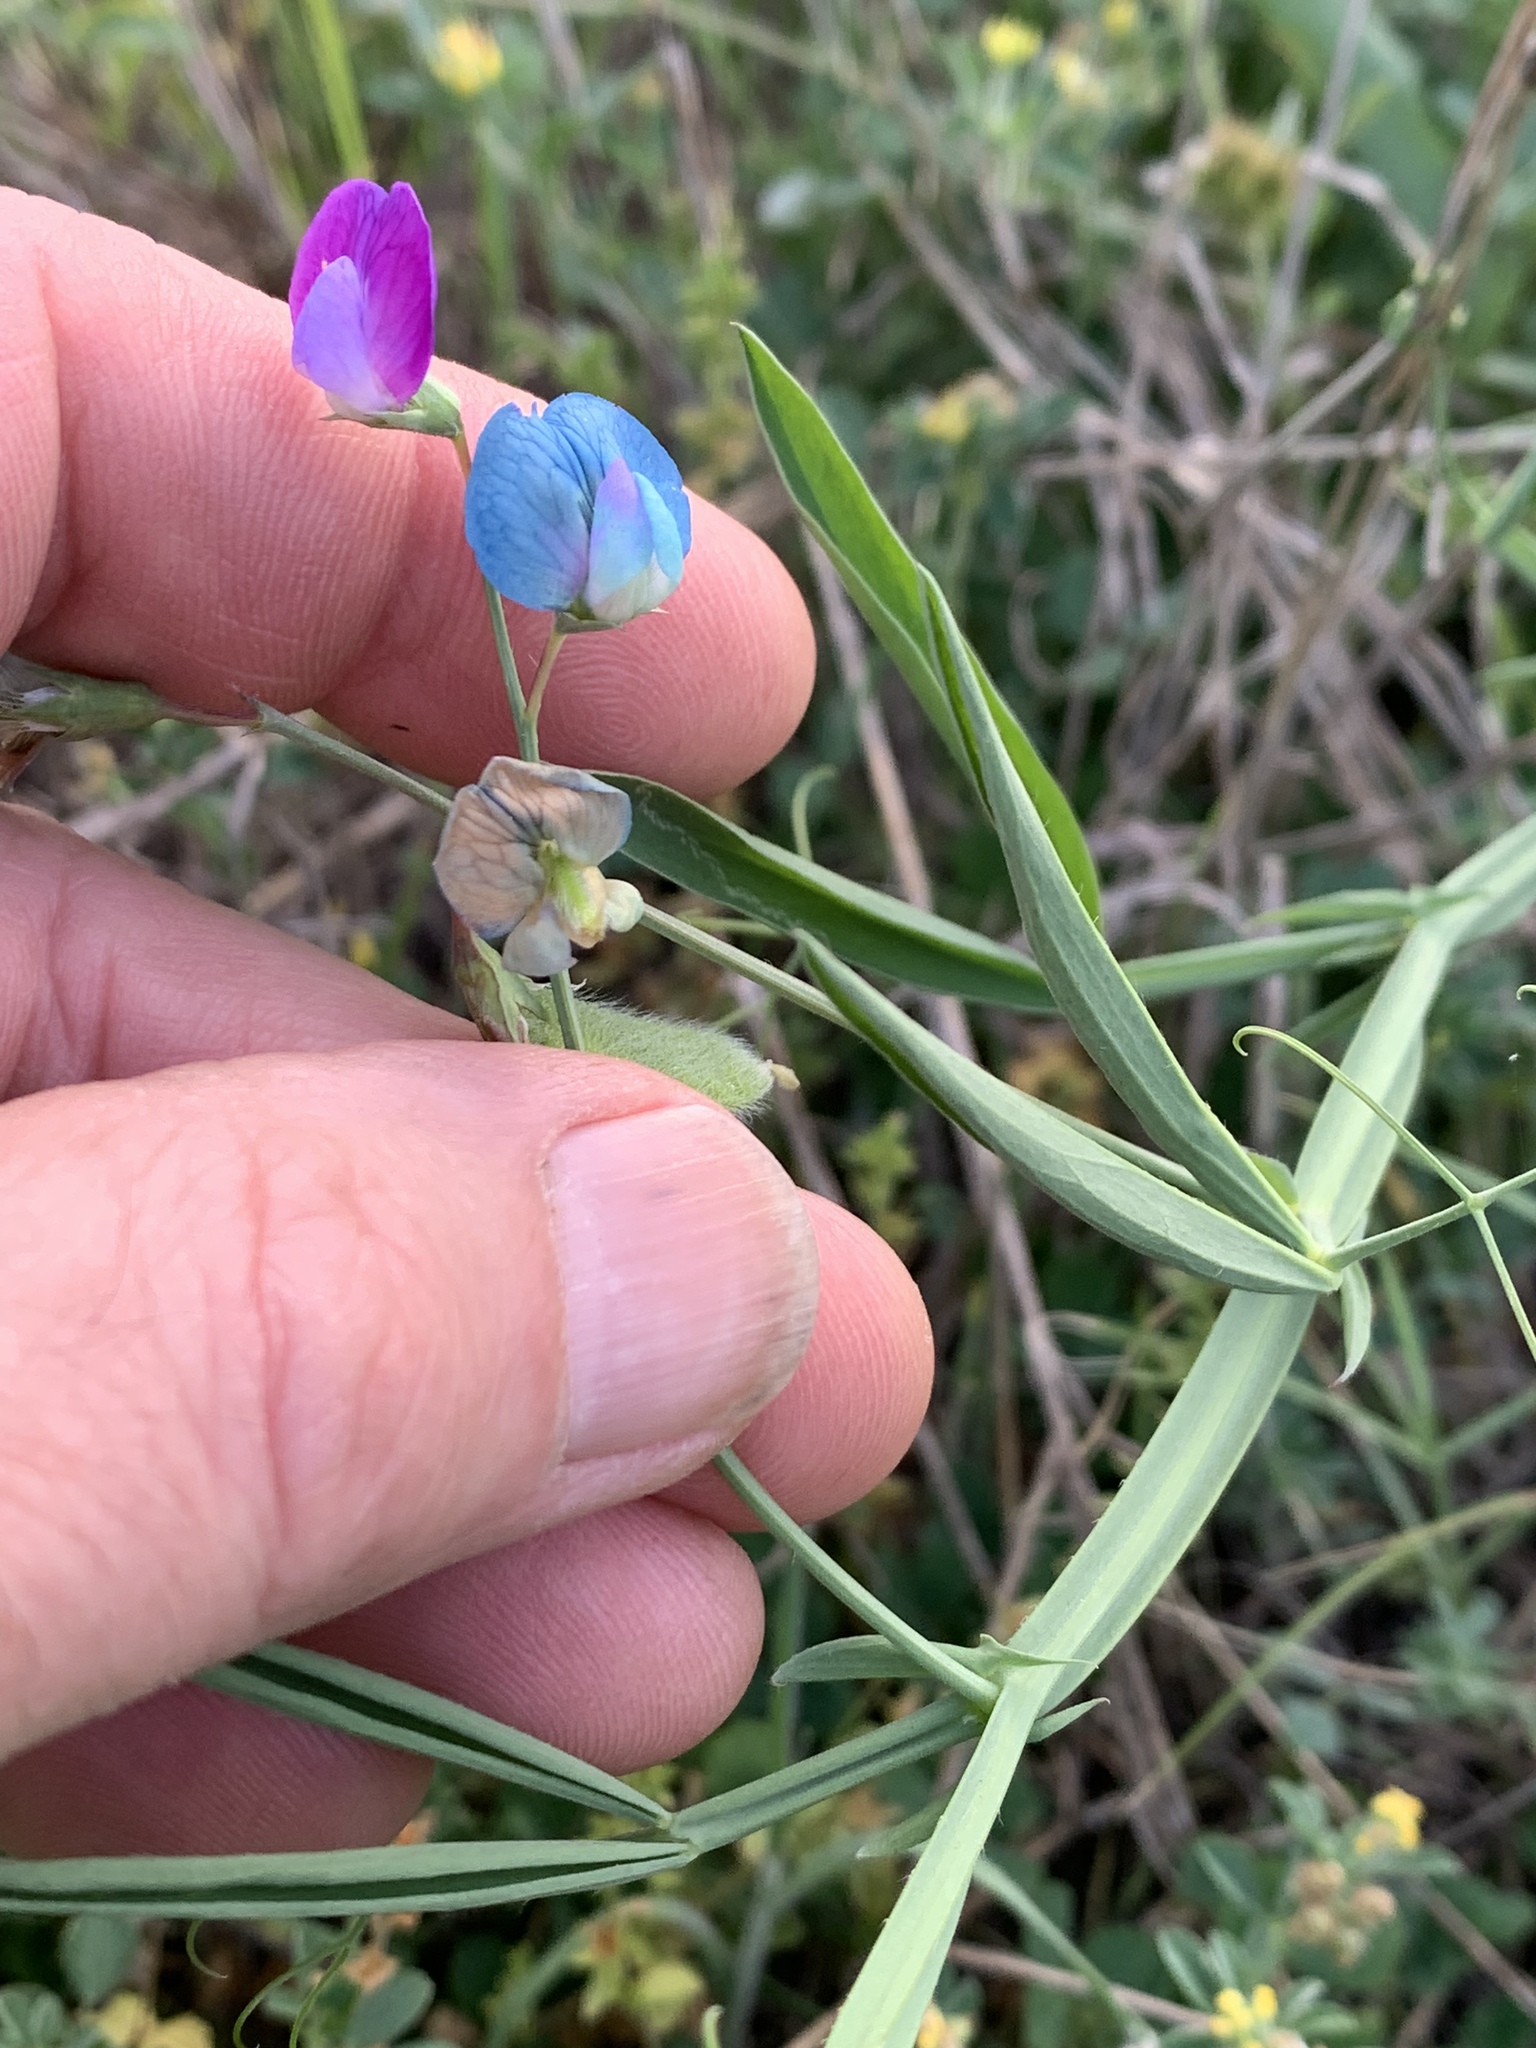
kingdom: Plantae
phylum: Tracheophyta
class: Magnoliopsida
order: Fabales
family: Fabaceae
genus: Lathyrus
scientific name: Lathyrus hirsutus
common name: Hairy vetchling
